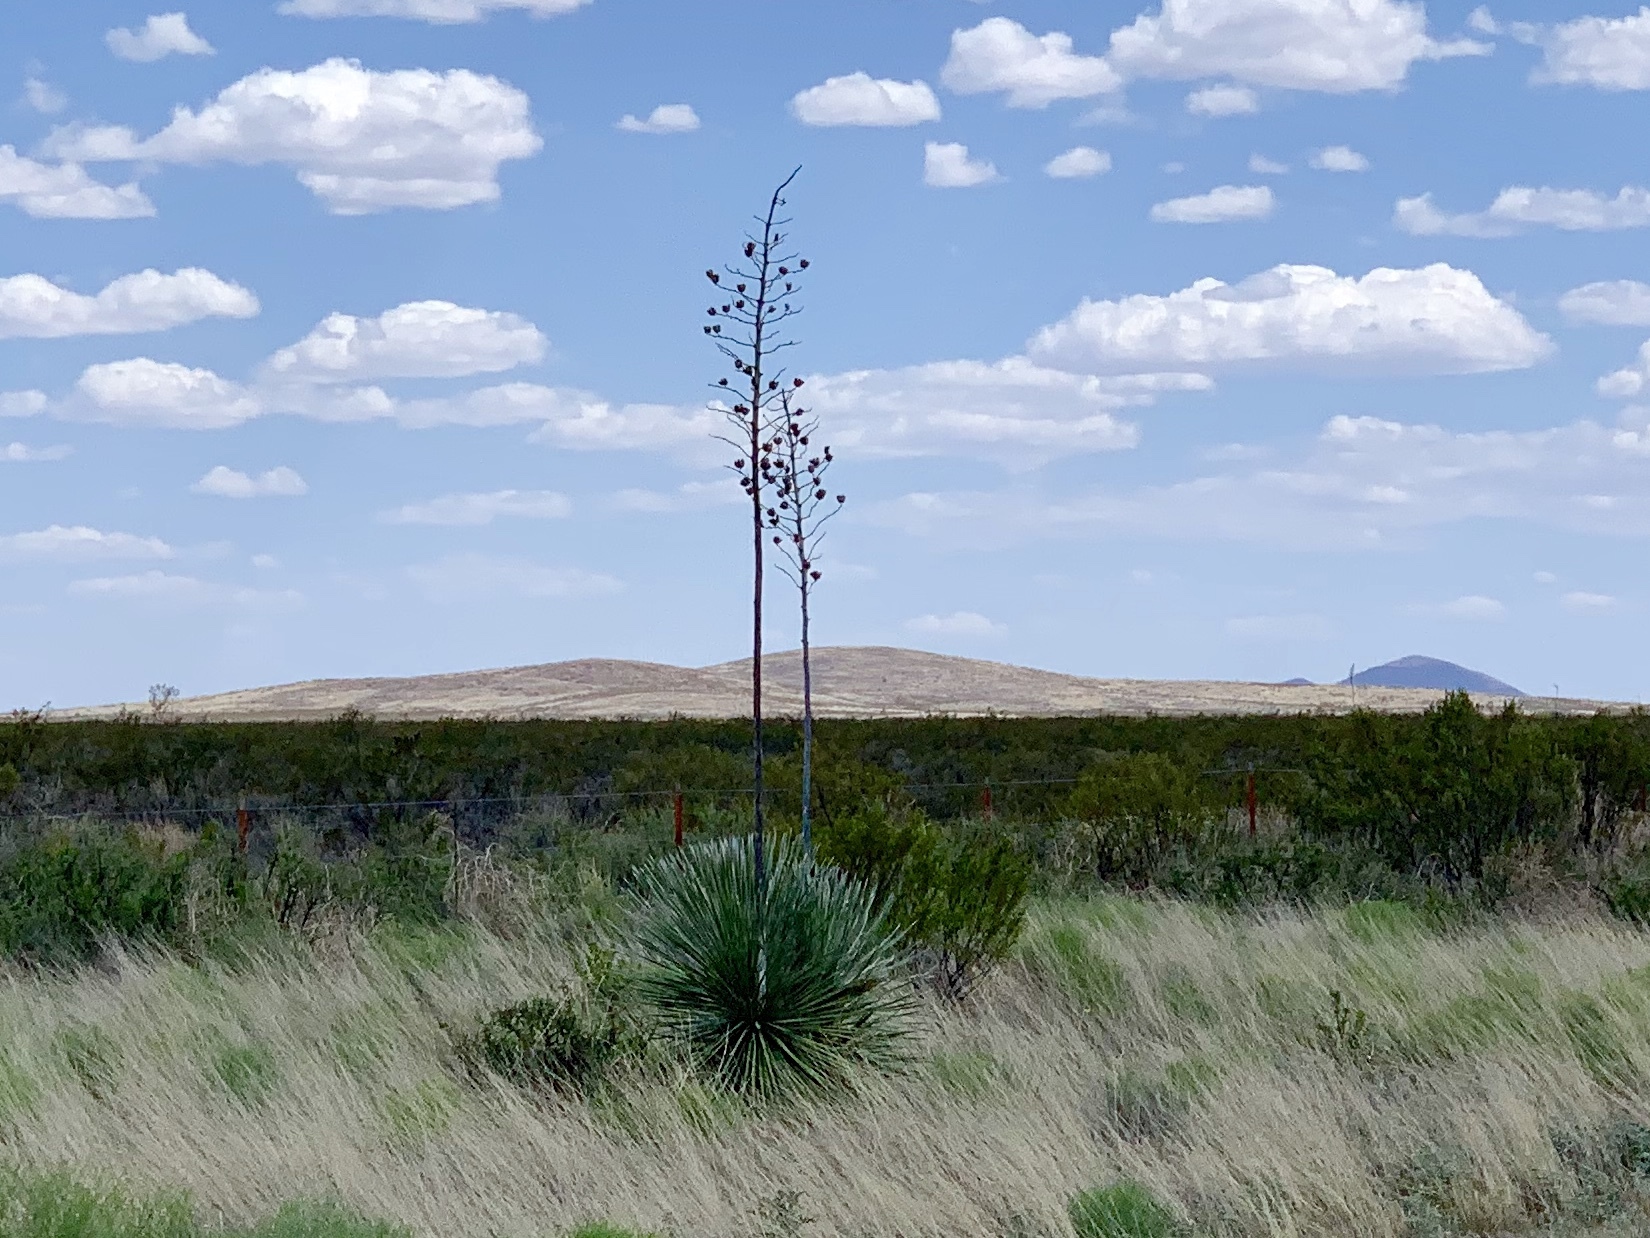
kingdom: Plantae
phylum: Tracheophyta
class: Liliopsida
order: Asparagales
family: Asparagaceae
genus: Yucca
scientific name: Yucca elata
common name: Palmella
